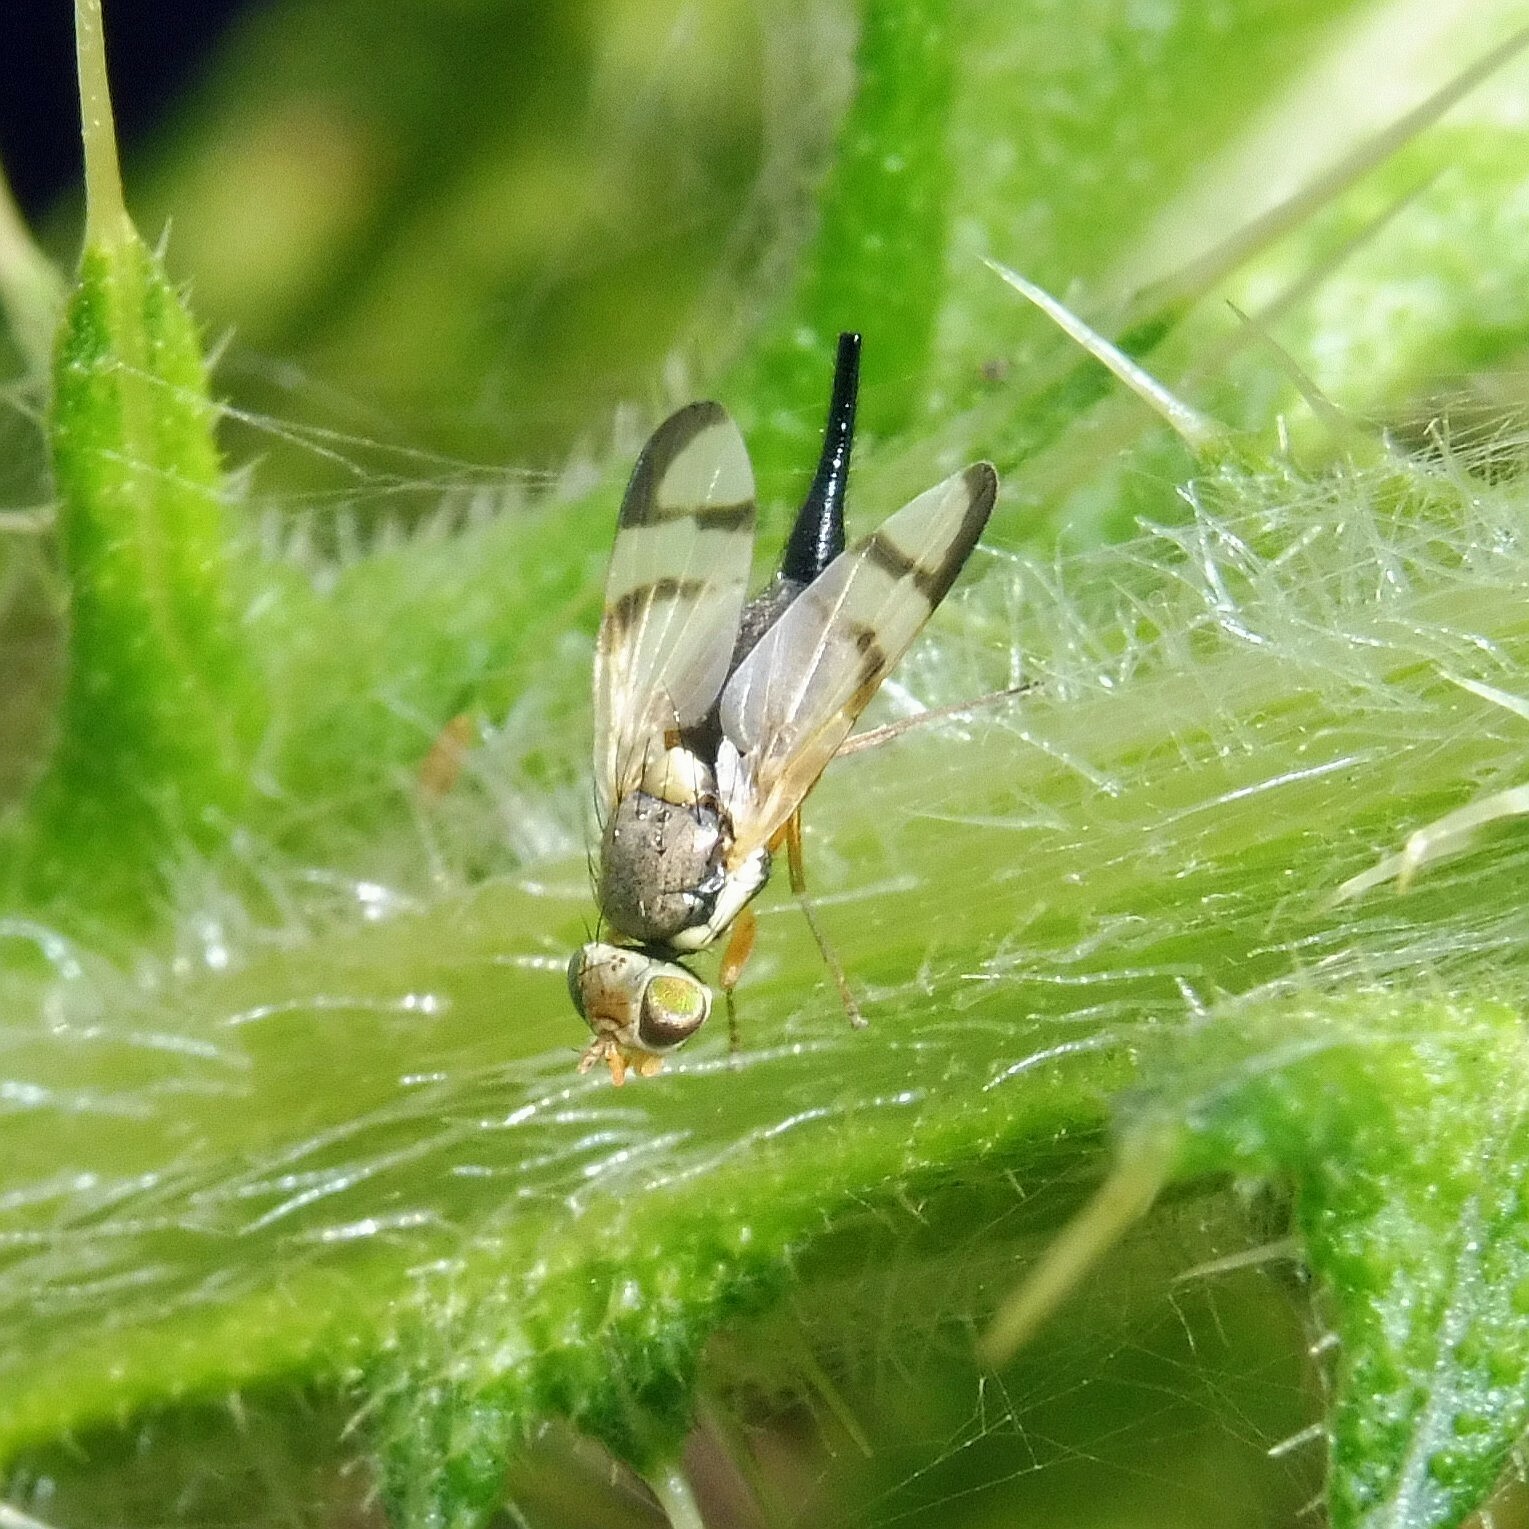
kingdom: Animalia
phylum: Arthropoda
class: Insecta
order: Diptera
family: Tephritidae
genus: Urophora
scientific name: Urophora stylata
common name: Fruit fly
